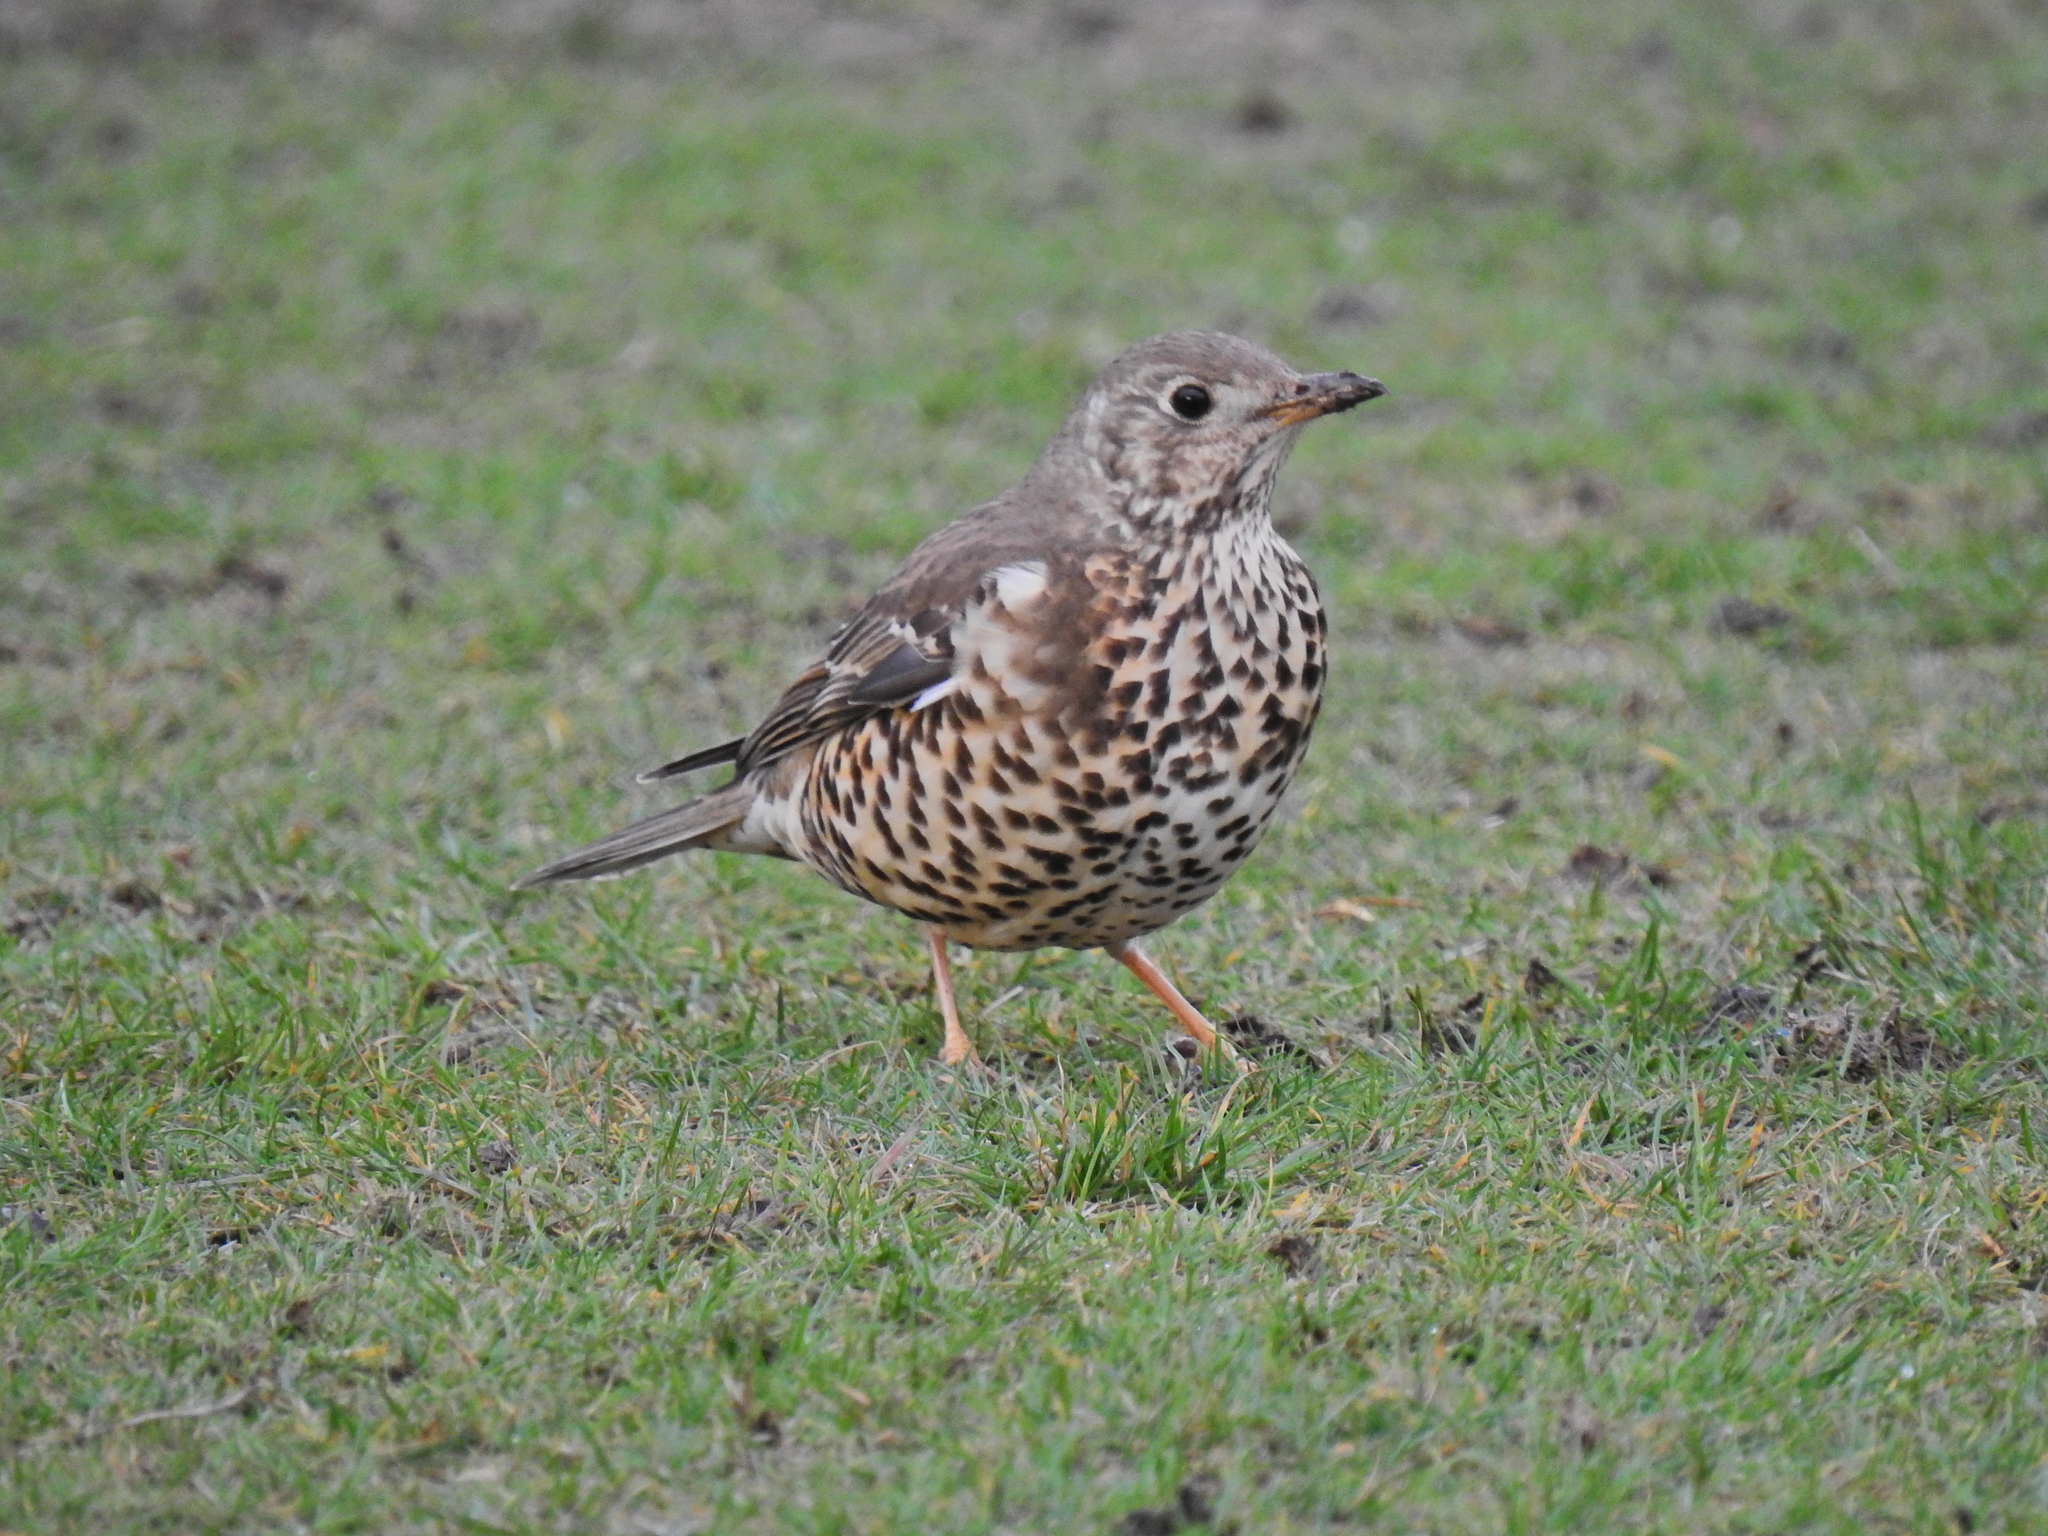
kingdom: Animalia
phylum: Chordata
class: Aves
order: Passeriformes
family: Turdidae
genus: Turdus
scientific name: Turdus viscivorus
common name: Mistle thrush
